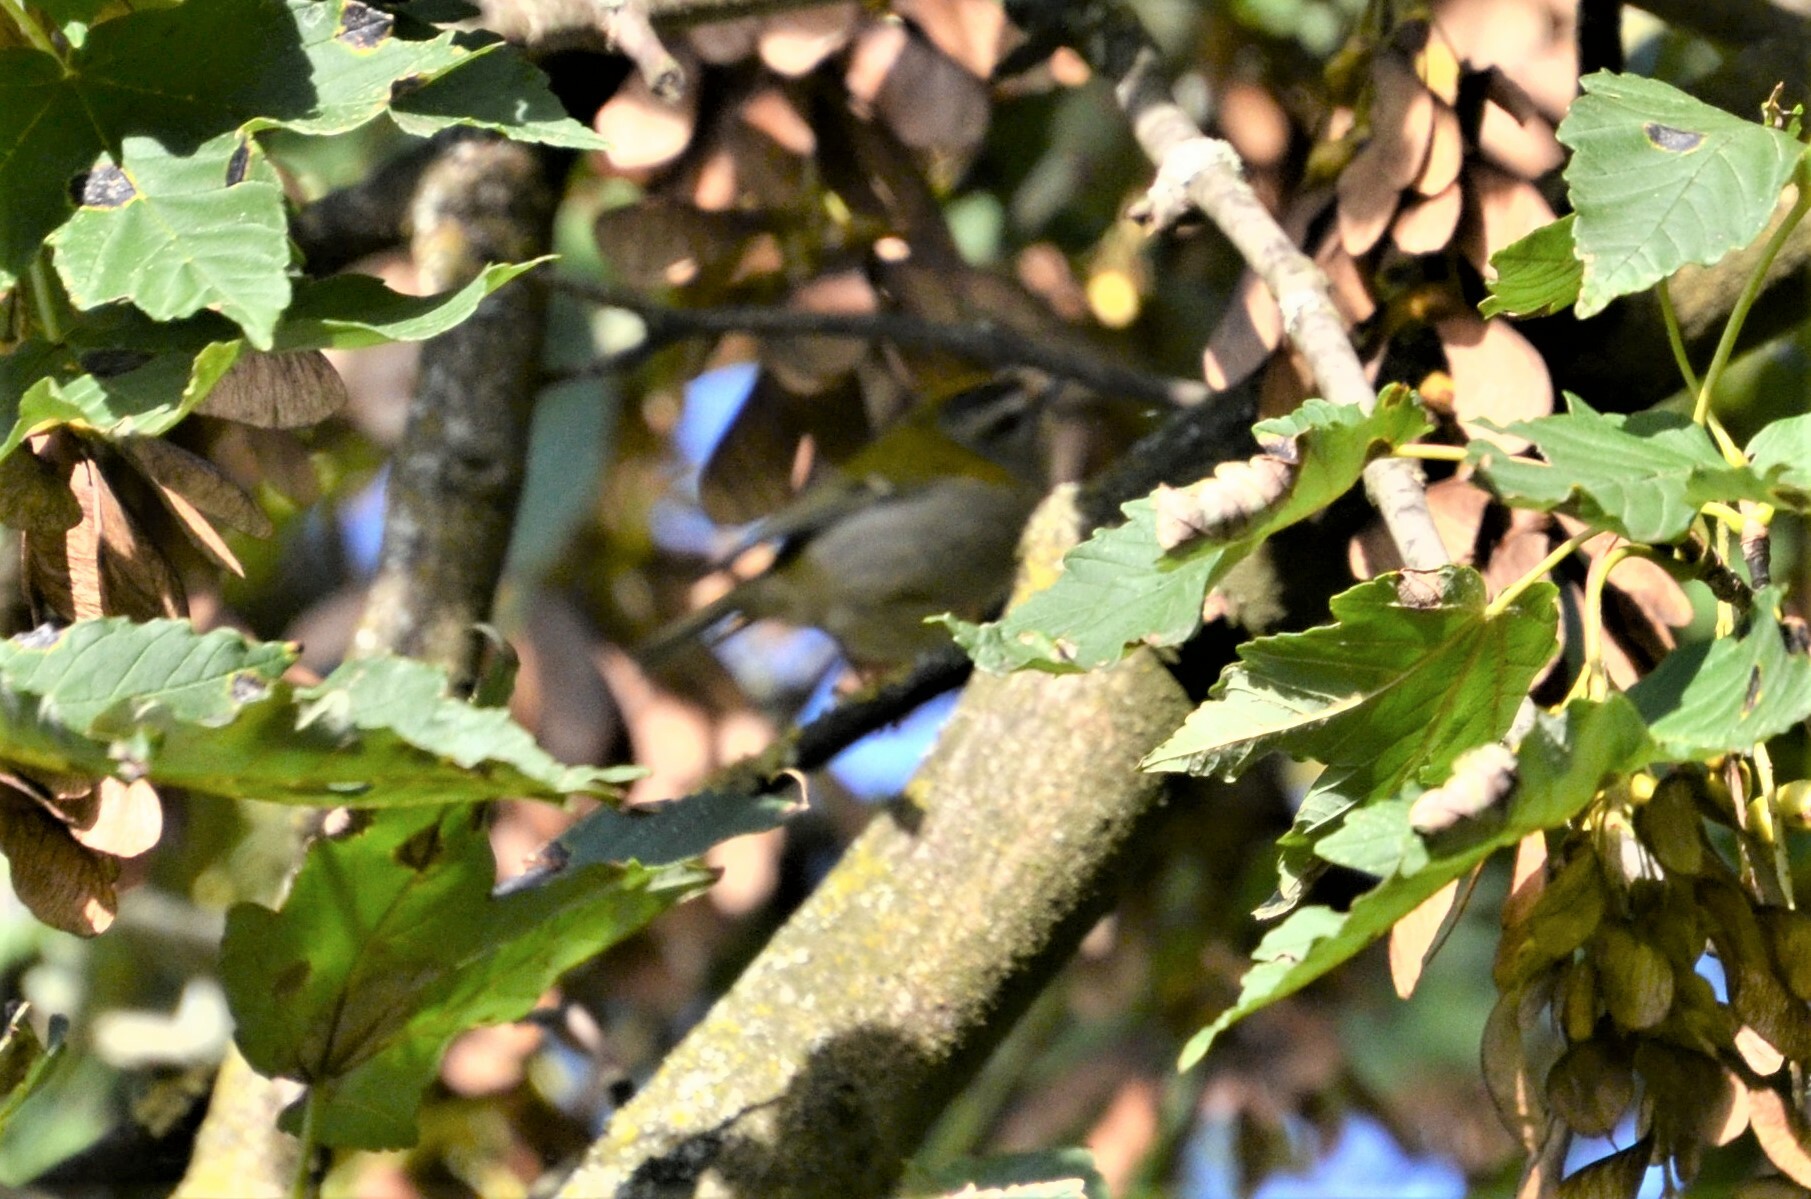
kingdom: Animalia
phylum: Chordata
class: Aves
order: Passeriformes
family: Regulidae
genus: Regulus
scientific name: Regulus ignicapilla
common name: Firecrest
